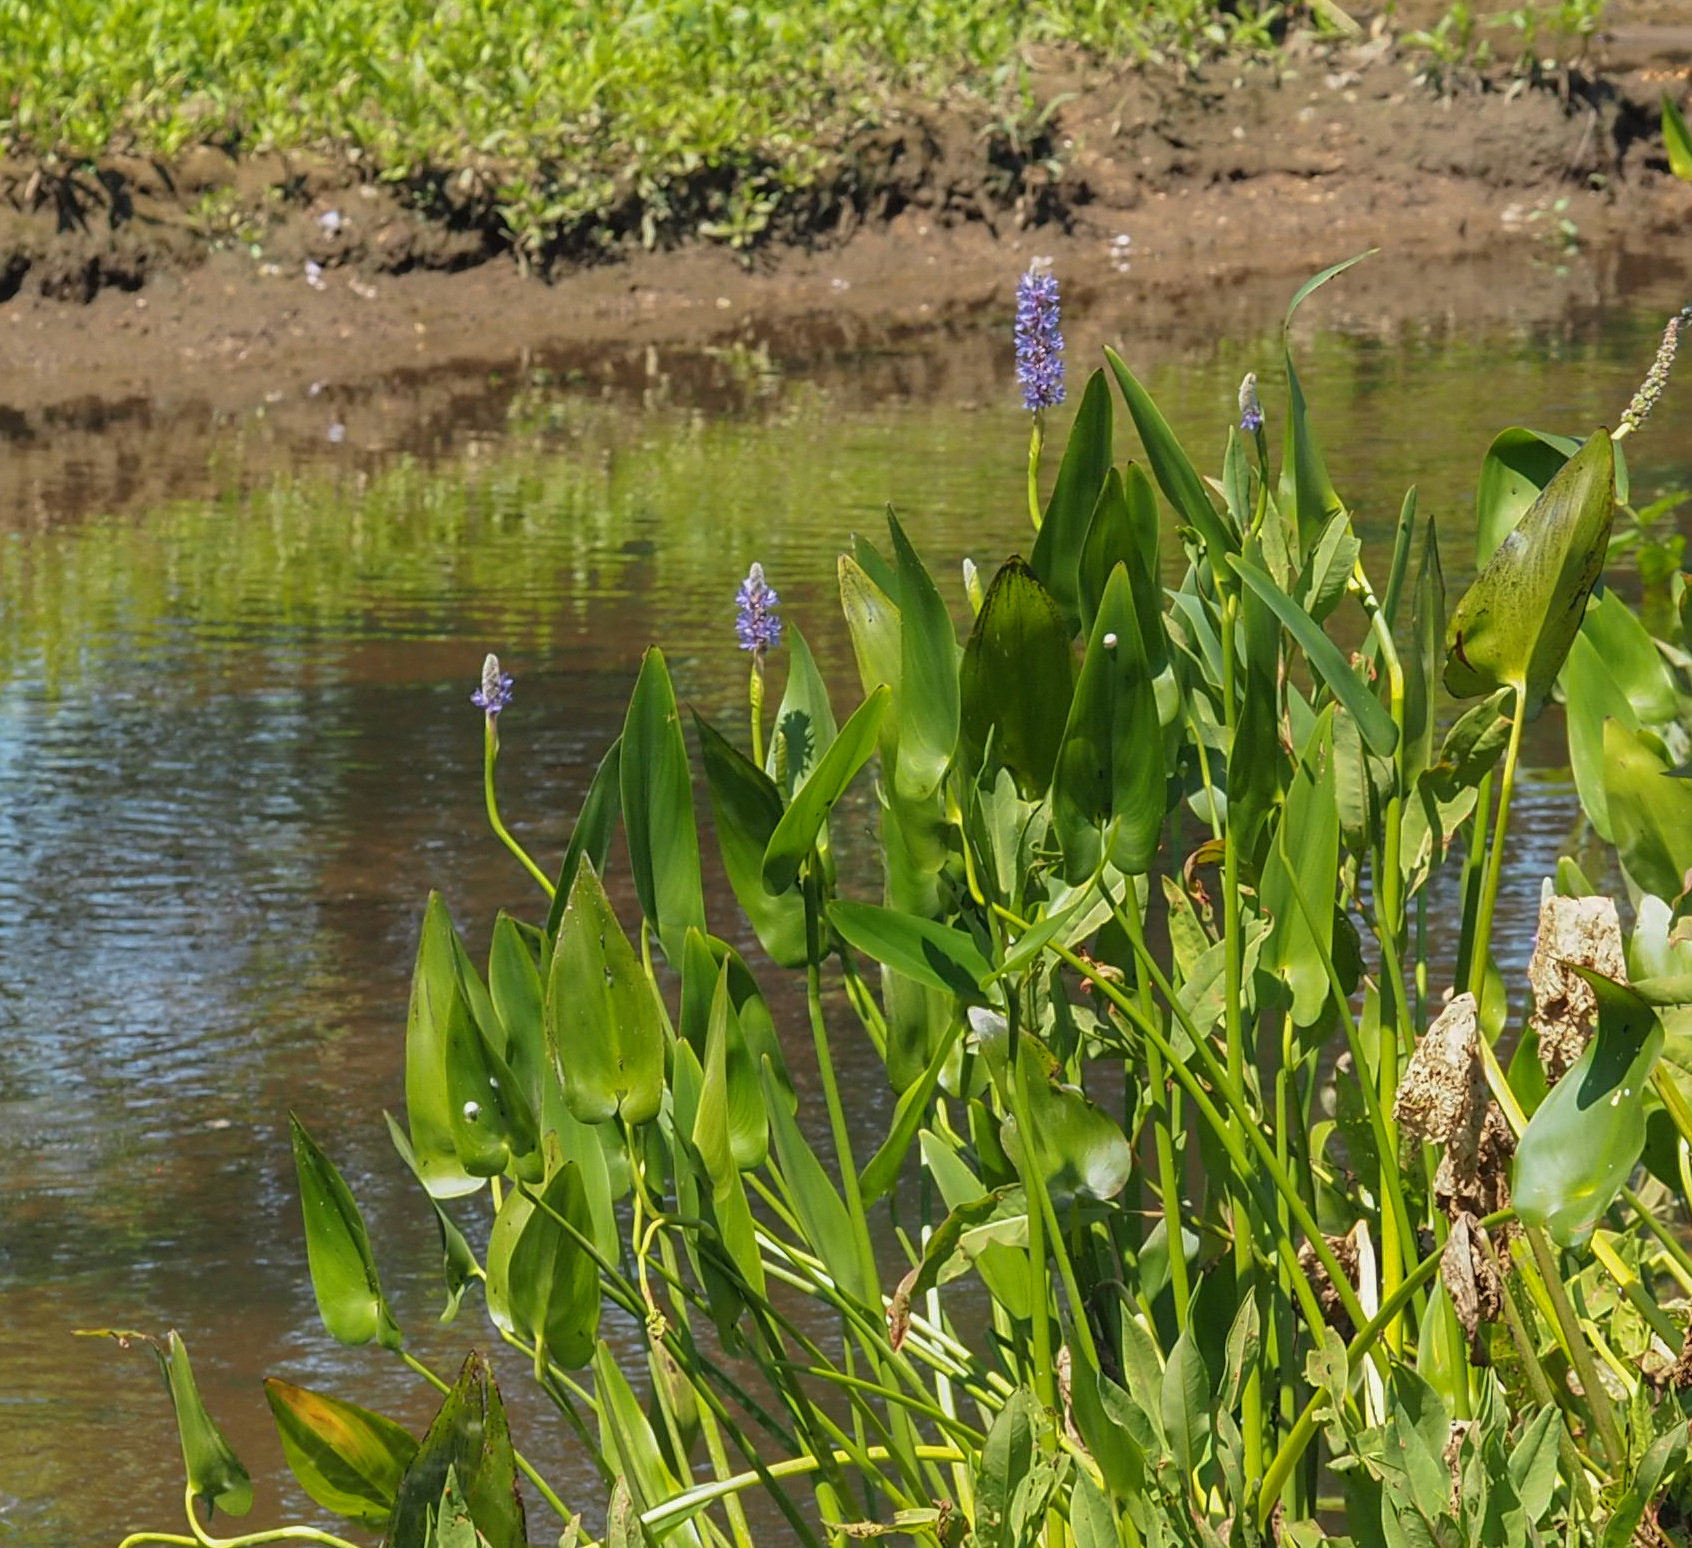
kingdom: Plantae
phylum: Tracheophyta
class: Liliopsida
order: Commelinales
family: Pontederiaceae
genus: Pontederia
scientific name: Pontederia cordata
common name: Pickerelweed
